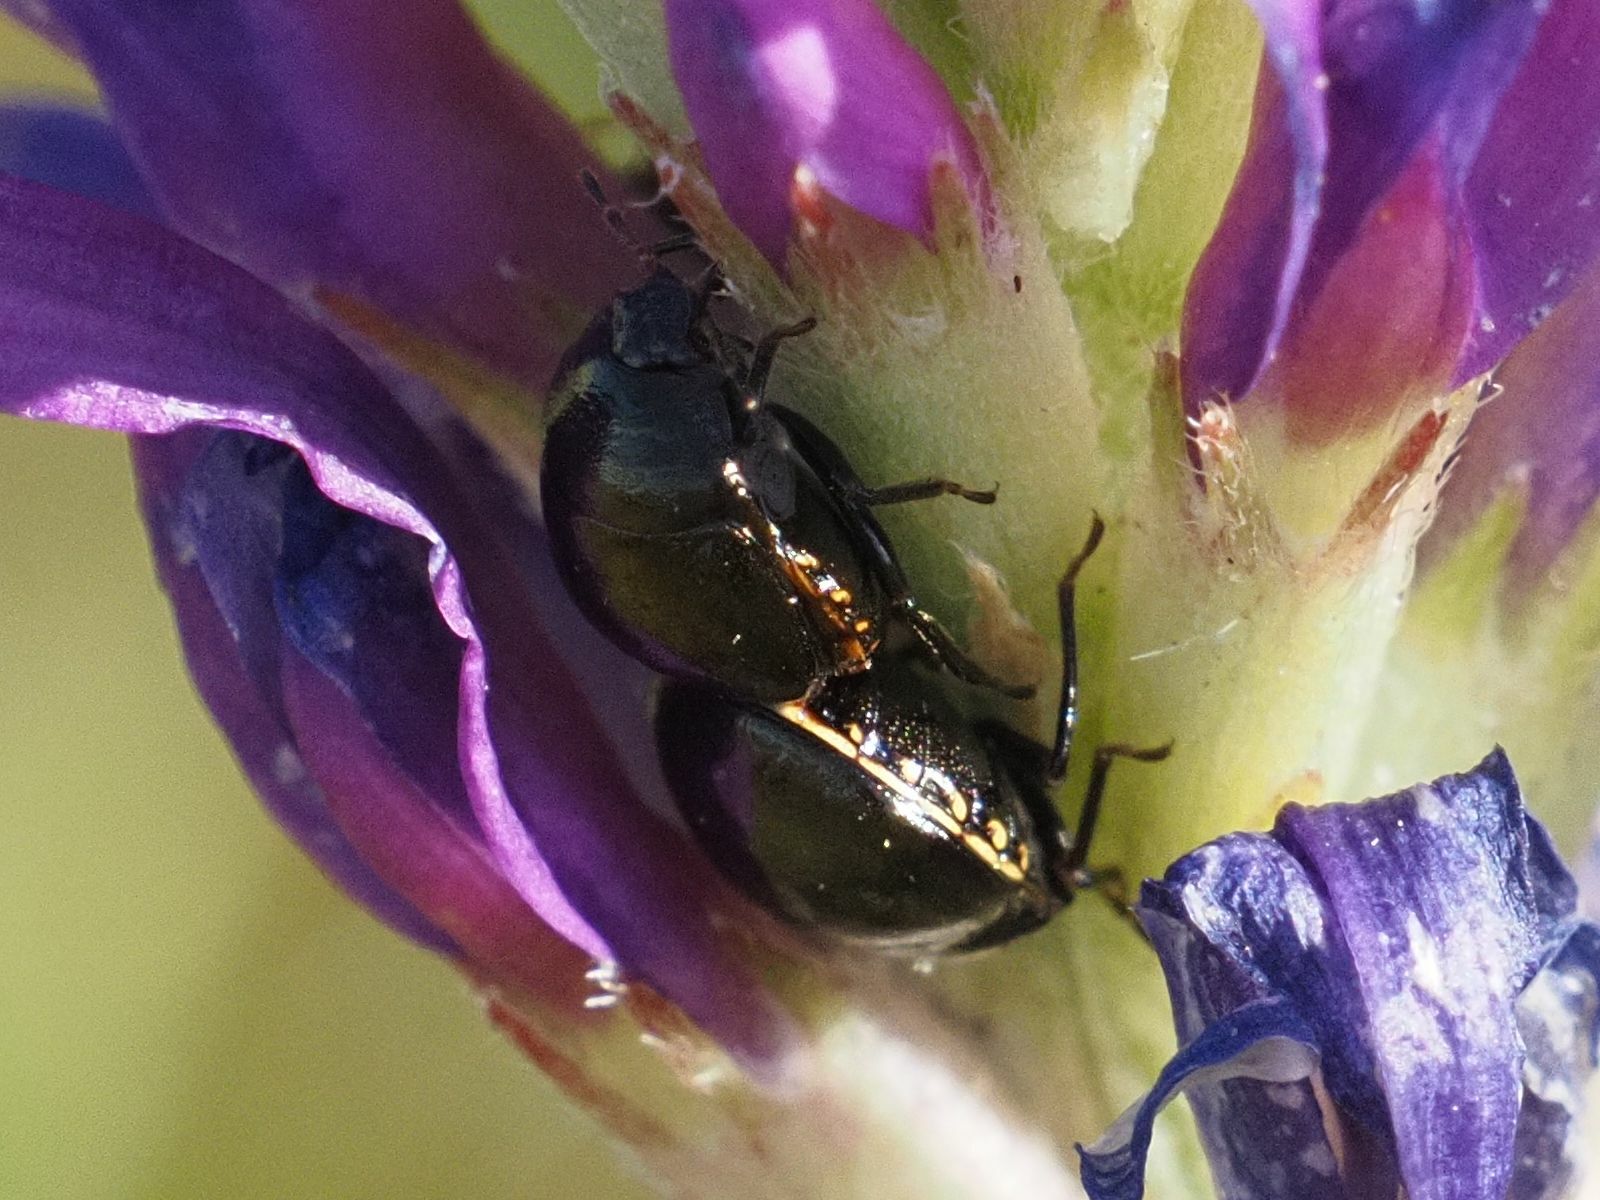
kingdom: Animalia
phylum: Arthropoda
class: Insecta
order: Hemiptera
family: Plataspidae
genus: Coptosoma
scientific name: Coptosoma scutellatum
